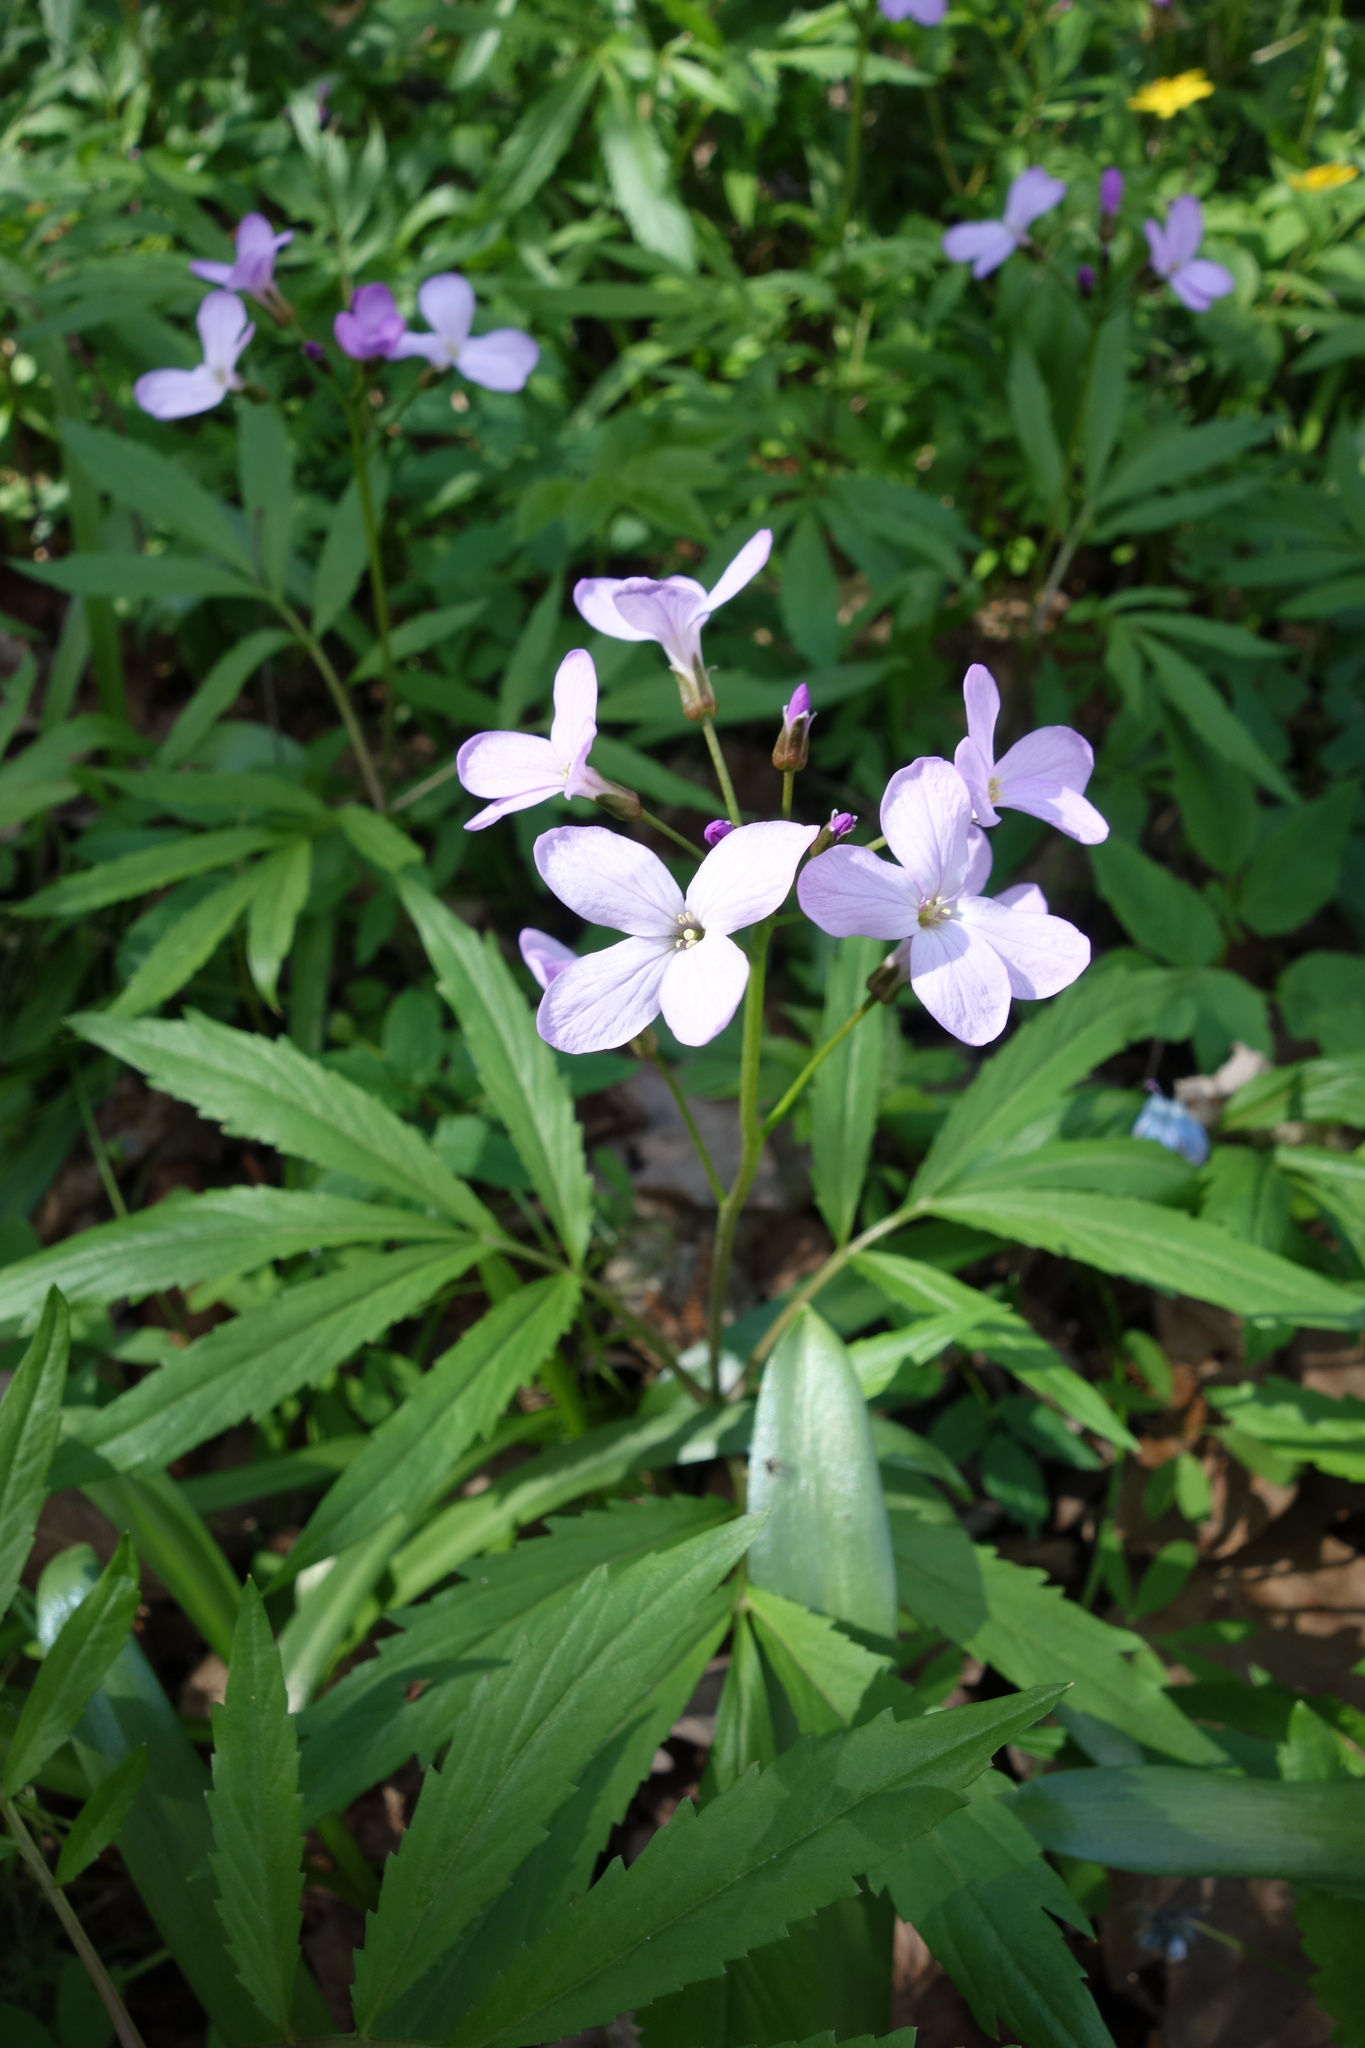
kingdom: Plantae
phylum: Tracheophyta
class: Magnoliopsida
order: Brassicales
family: Brassicaceae
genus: Cardamine
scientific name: Cardamine quinquefolia
